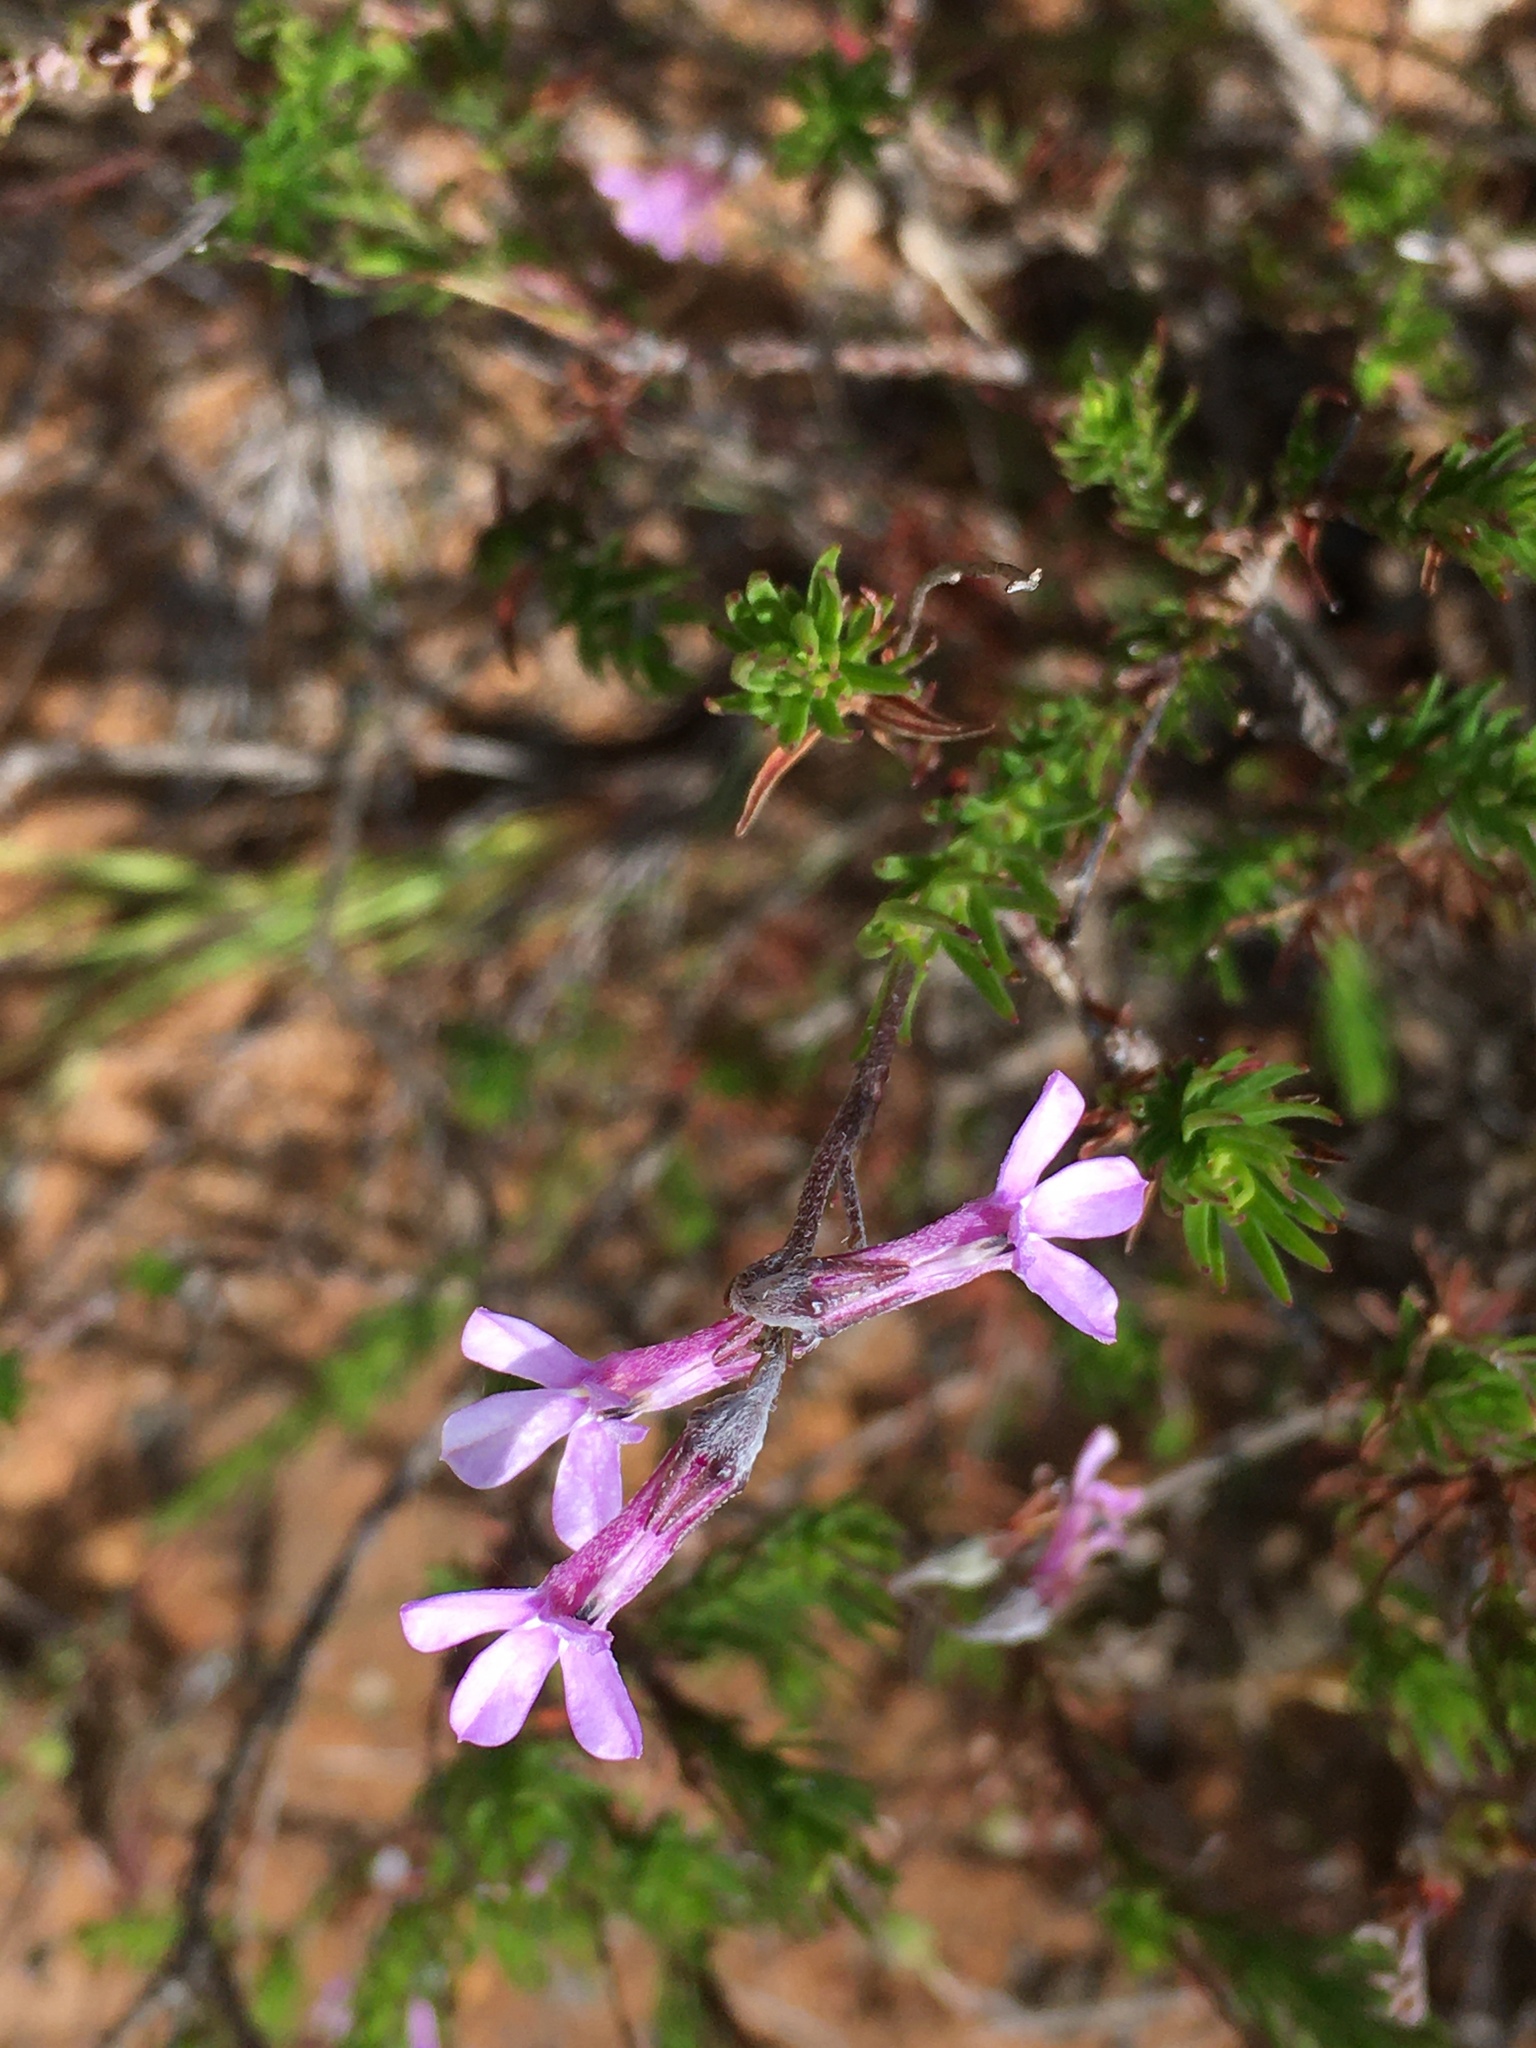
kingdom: Plantae
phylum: Tracheophyta
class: Magnoliopsida
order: Asterales
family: Campanulaceae
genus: Lobelia
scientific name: Lobelia pinifolia
